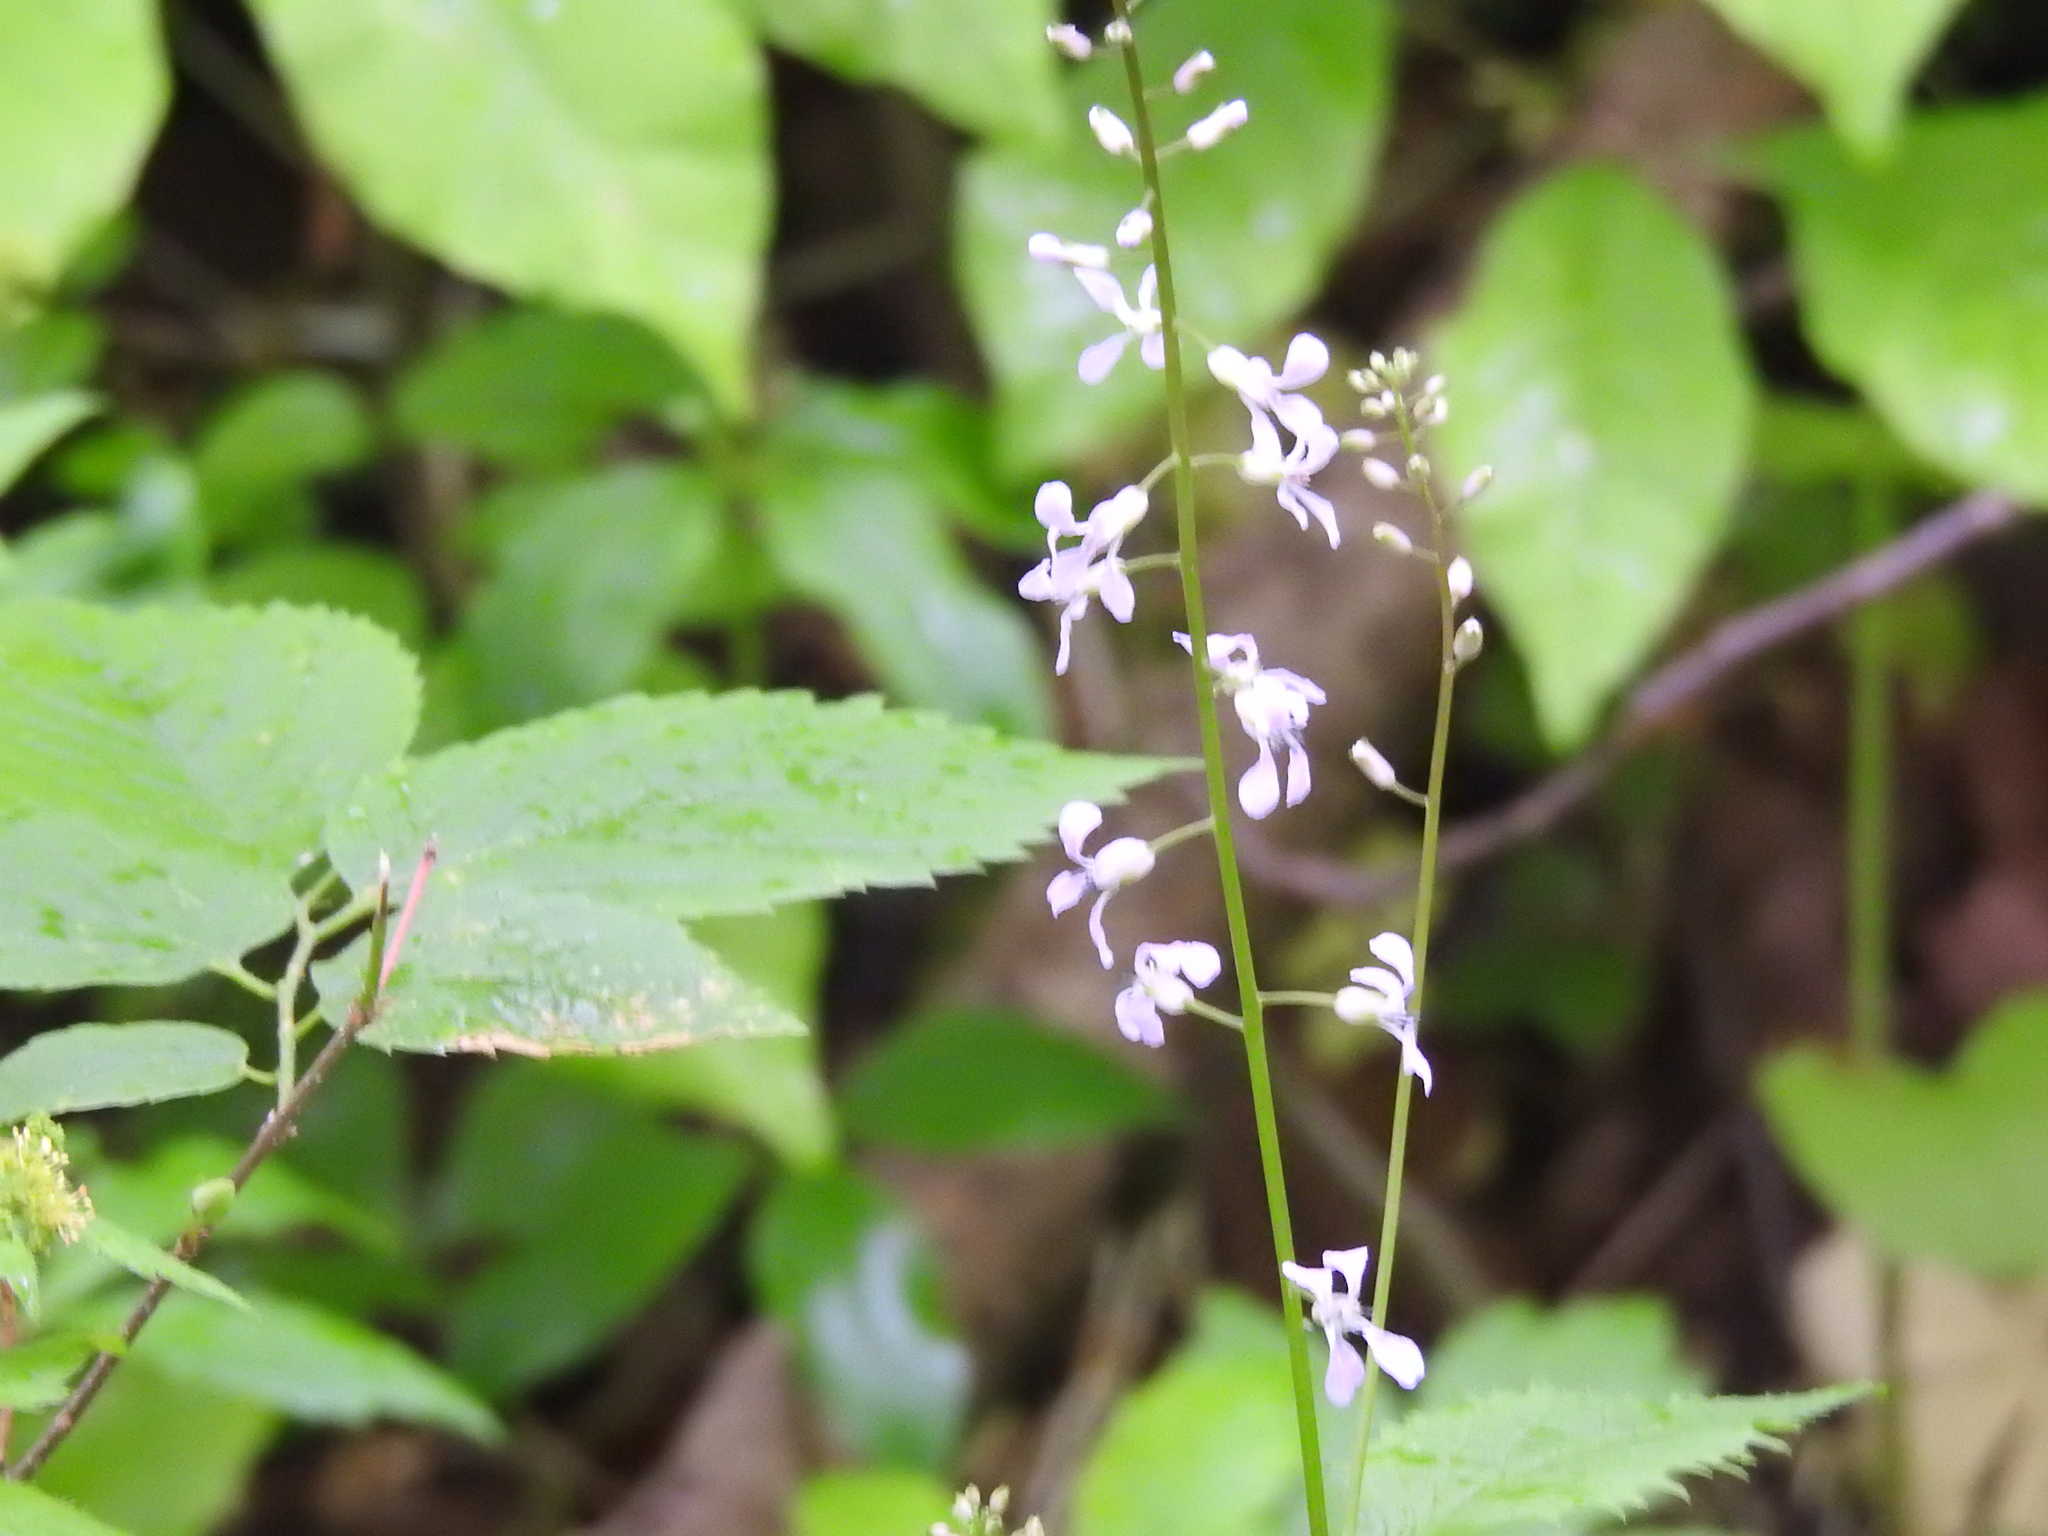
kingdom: Plantae
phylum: Tracheophyta
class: Magnoliopsida
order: Brassicales
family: Brassicaceae
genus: Iodanthus
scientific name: Iodanthus pinnatifidus
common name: Violet rocket
